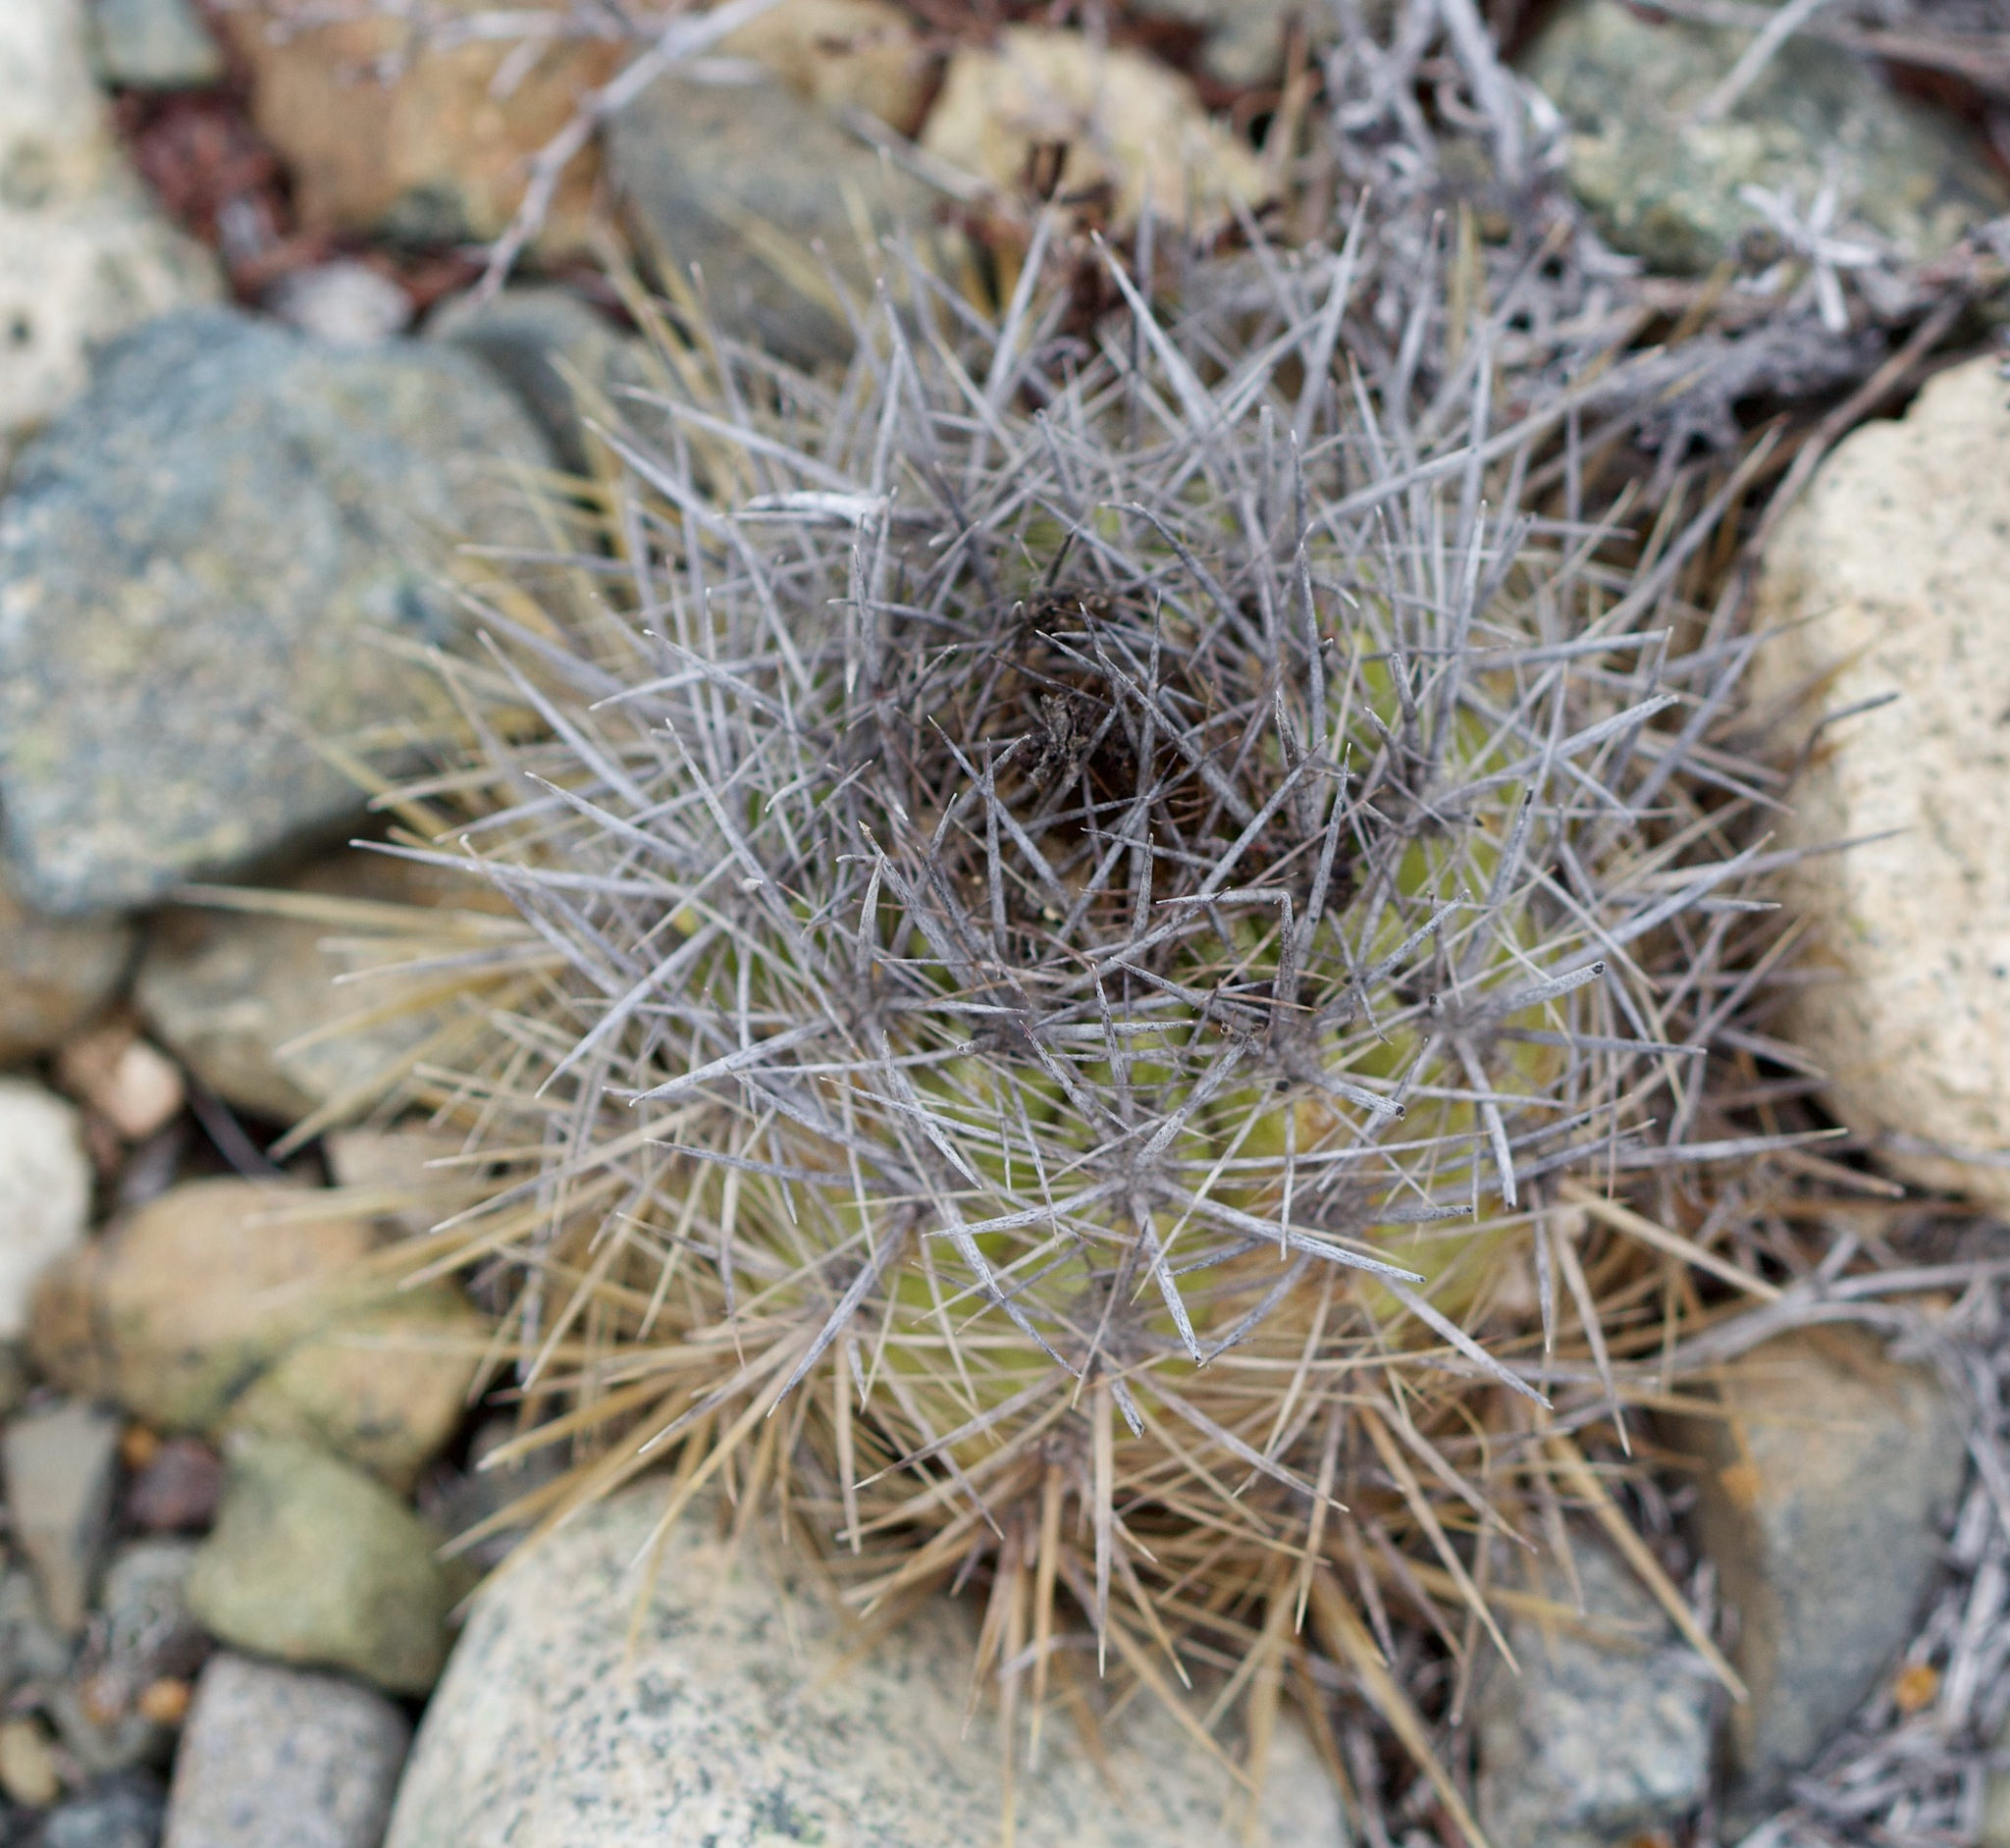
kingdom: Plantae
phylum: Tracheophyta
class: Magnoliopsida
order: Caryophyllales
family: Cactaceae
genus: Copiapoa
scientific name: Copiapoa coquimbana
